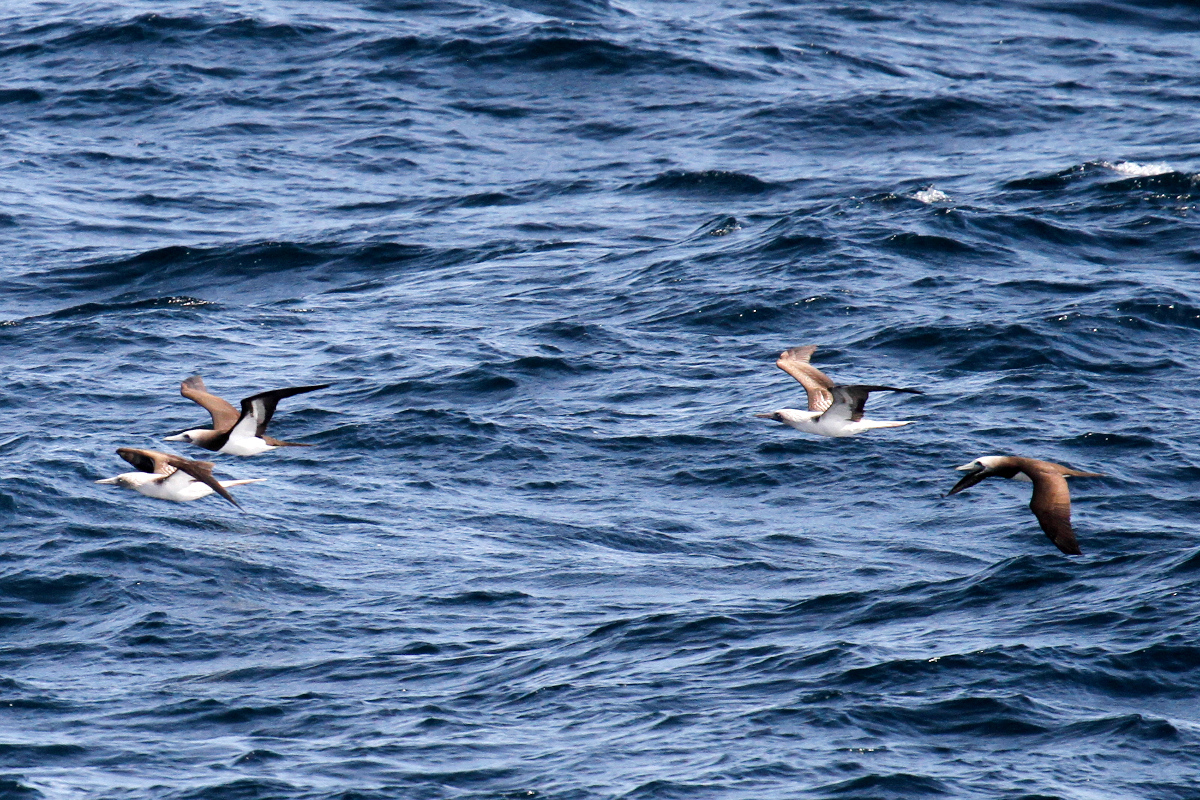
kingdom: Animalia
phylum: Chordata
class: Aves
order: Suliformes
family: Sulidae
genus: Sula
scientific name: Sula nebouxii
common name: Blue-footed booby
